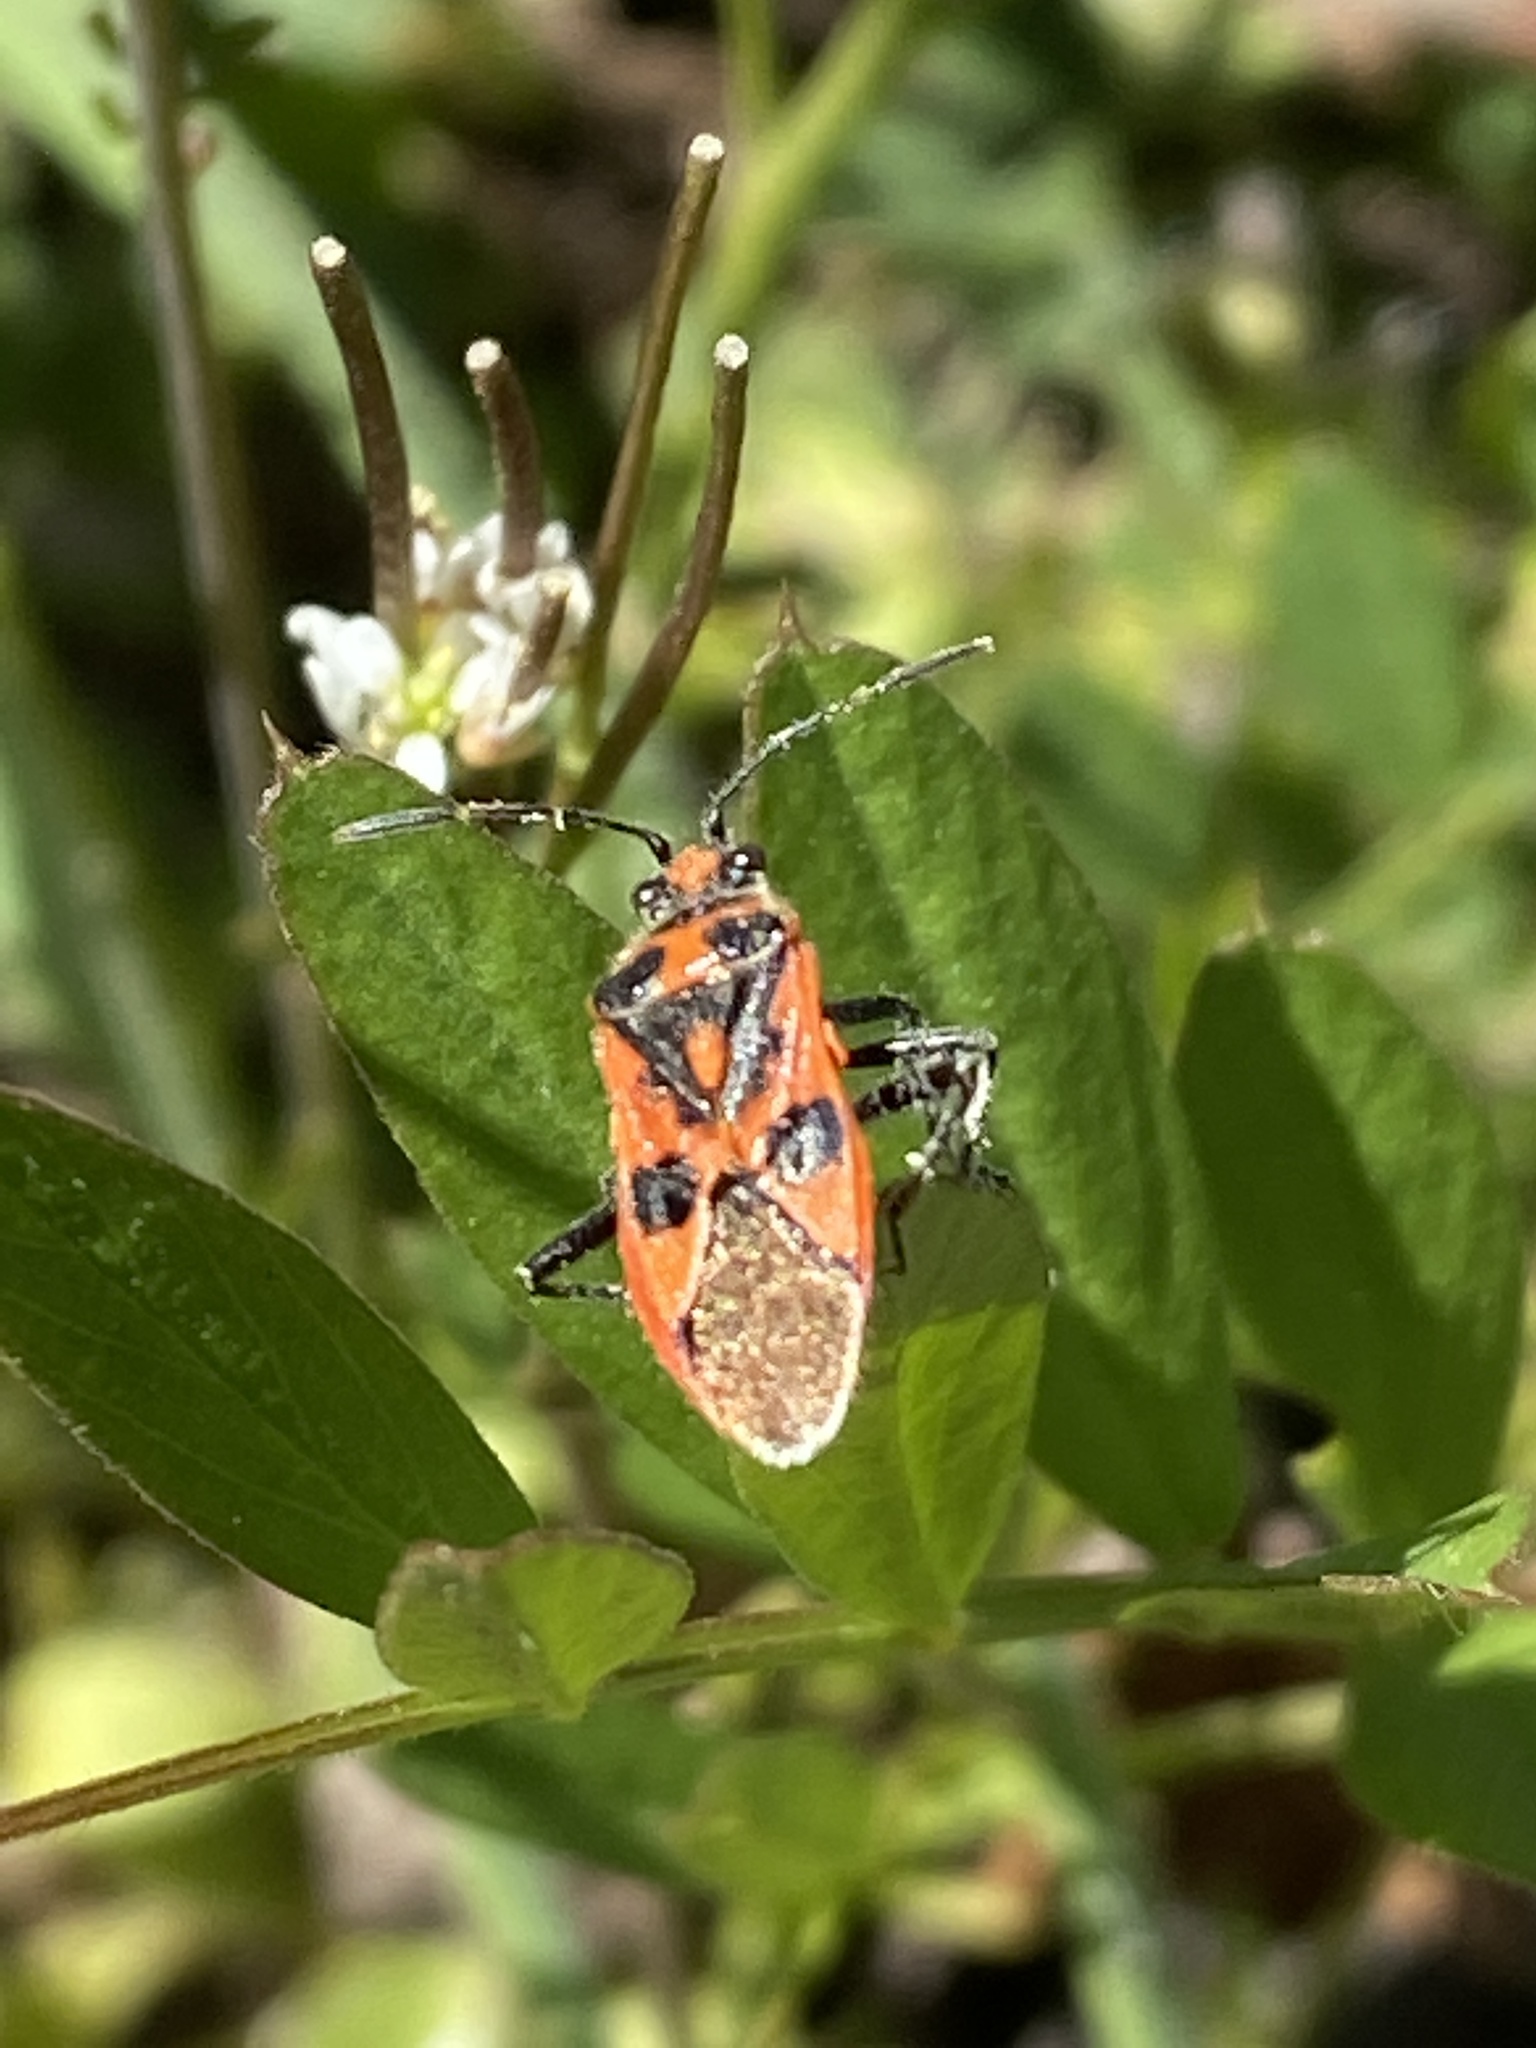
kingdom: Animalia
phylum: Arthropoda
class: Insecta
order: Hemiptera
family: Rhopalidae
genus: Corizus
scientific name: Corizus hyoscyami
